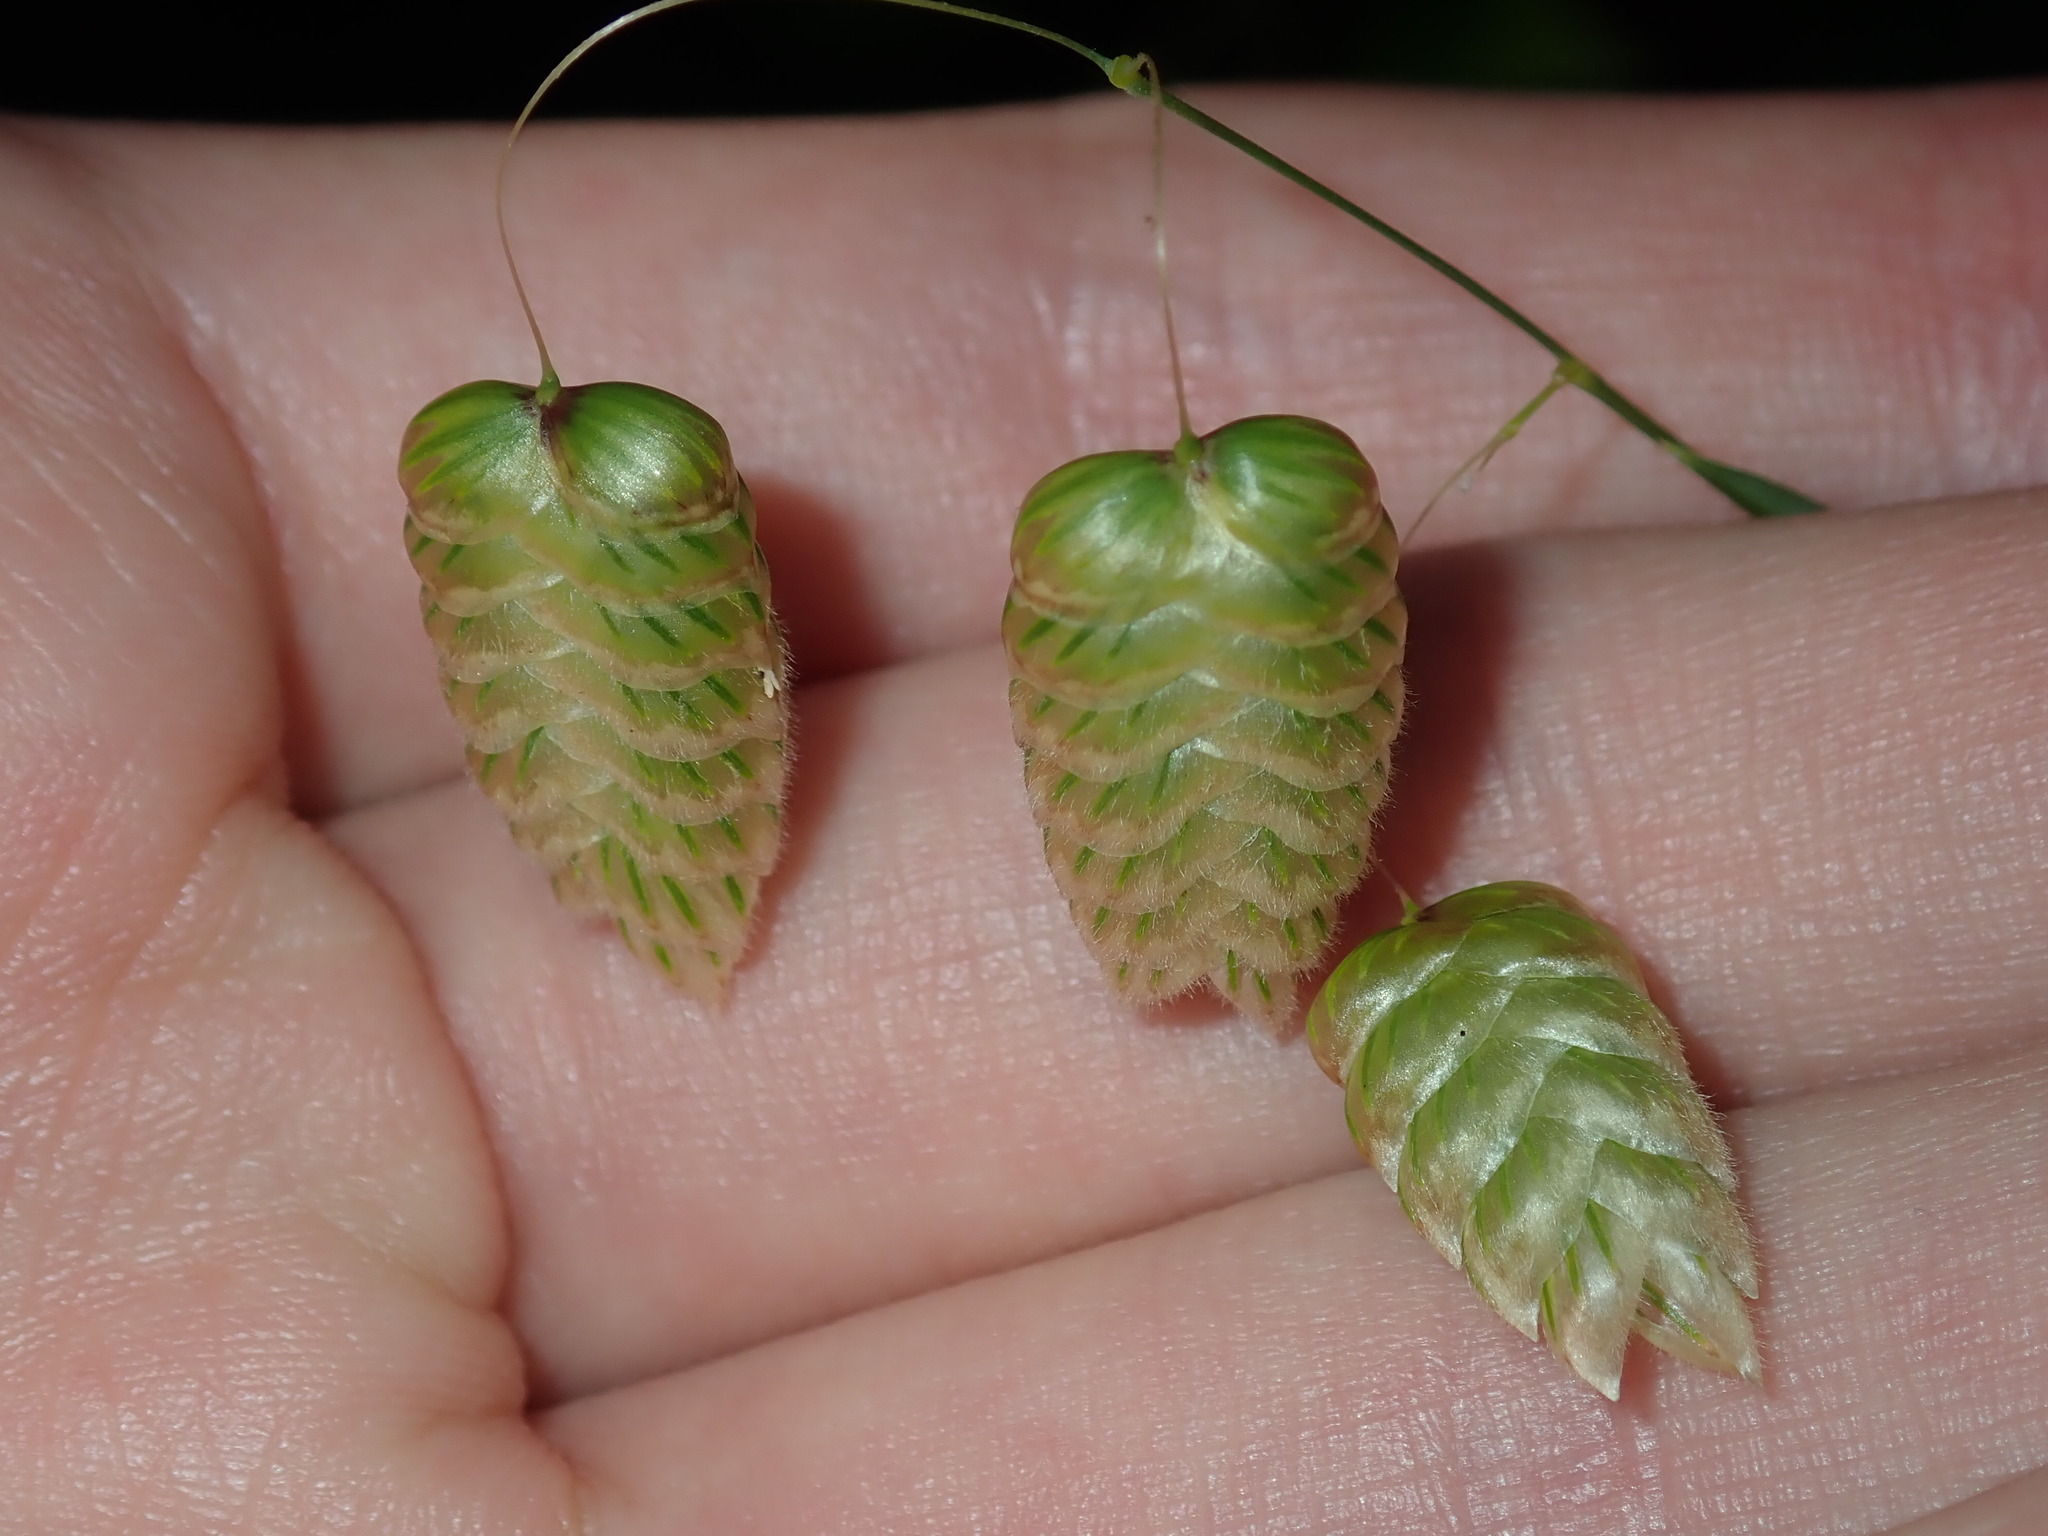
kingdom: Plantae
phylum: Tracheophyta
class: Liliopsida
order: Poales
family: Poaceae
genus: Briza
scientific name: Briza maxima
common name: Big quakinggrass
